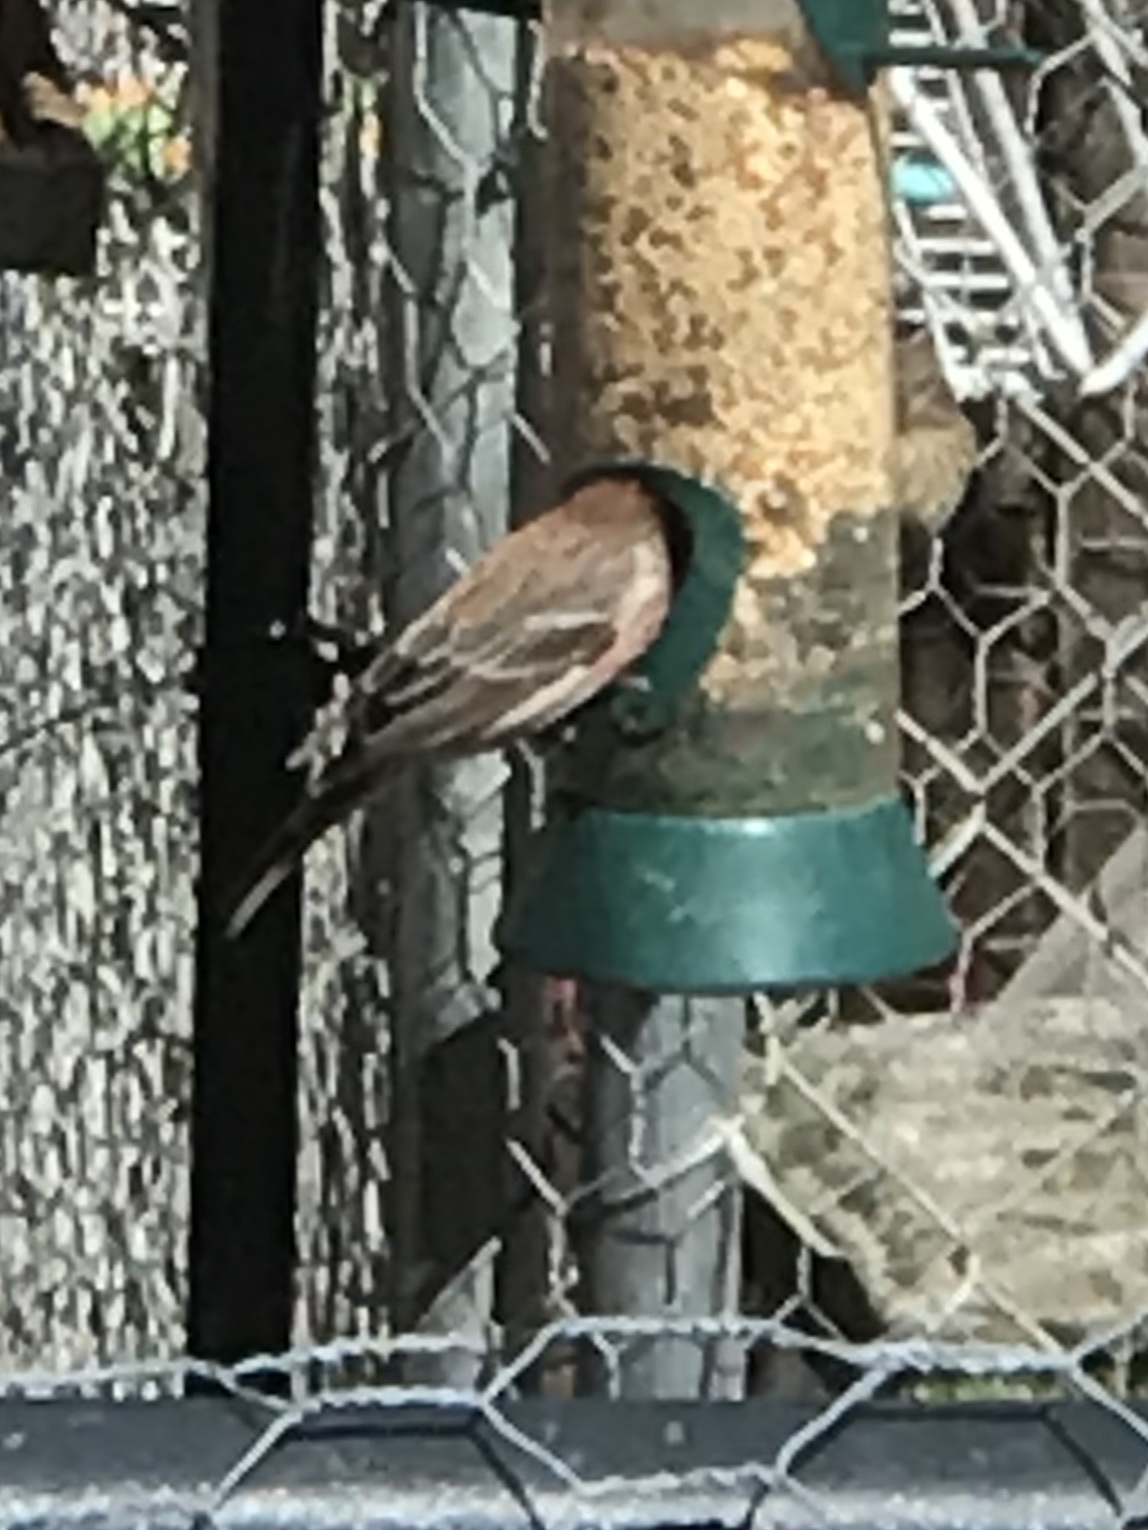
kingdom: Animalia
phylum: Chordata
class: Aves
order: Passeriformes
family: Fringillidae
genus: Haemorhous
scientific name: Haemorhous mexicanus
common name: House finch
